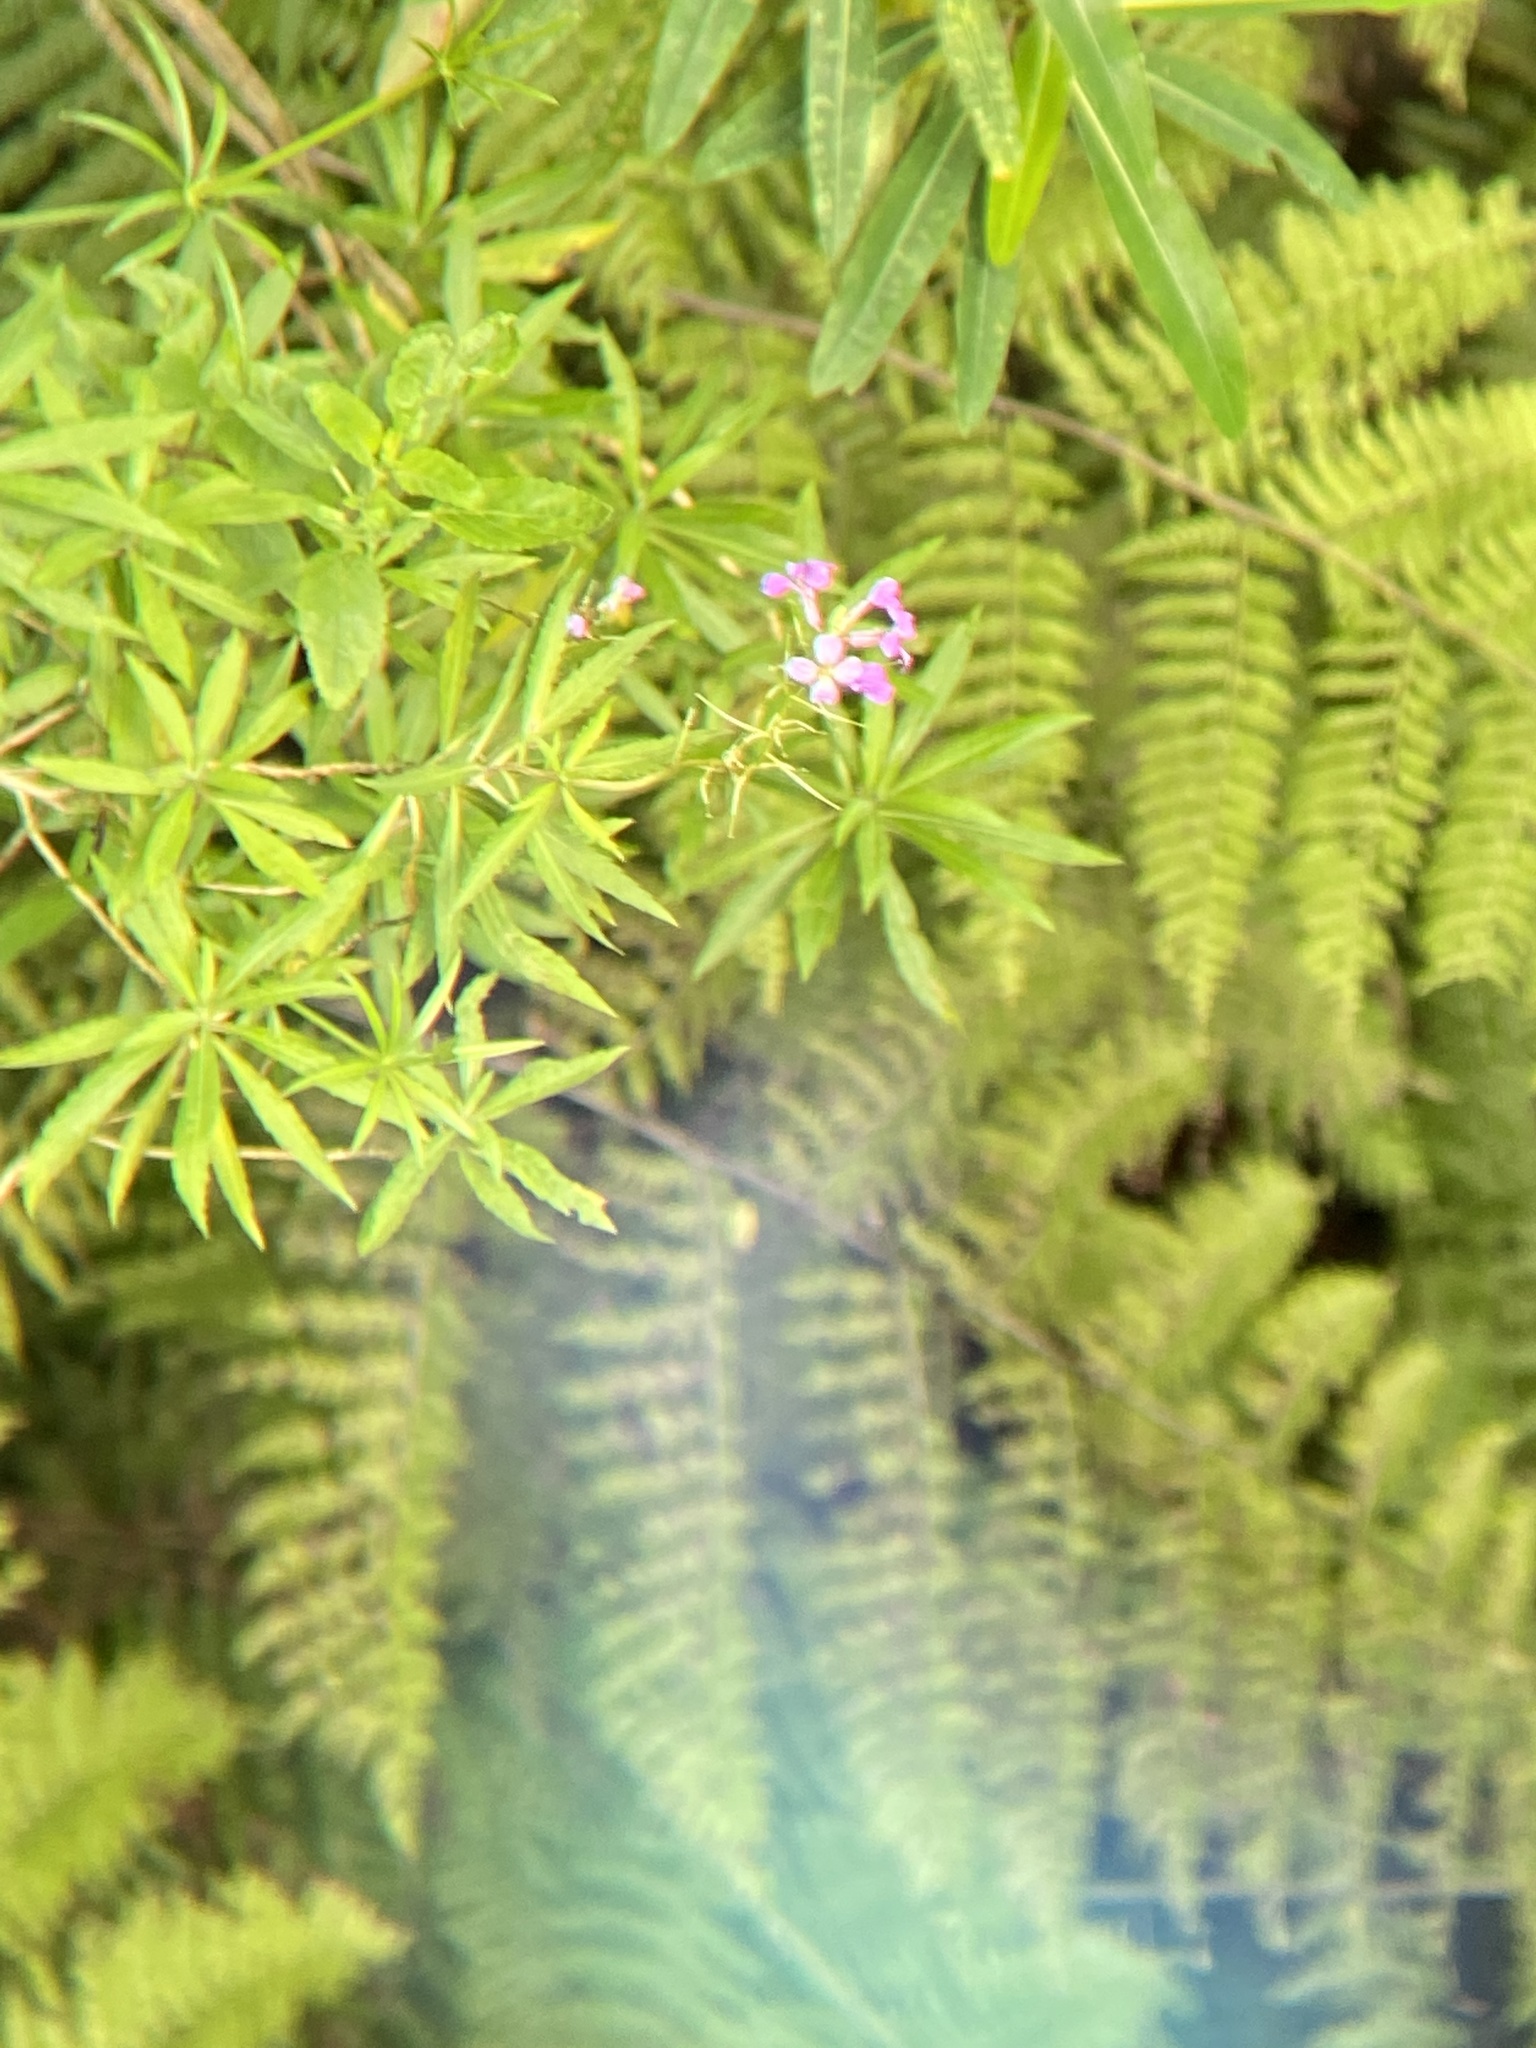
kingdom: Plantae
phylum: Tracheophyta
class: Magnoliopsida
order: Brassicales
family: Brassicaceae
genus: Erysimum
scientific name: Erysimum bicolor
